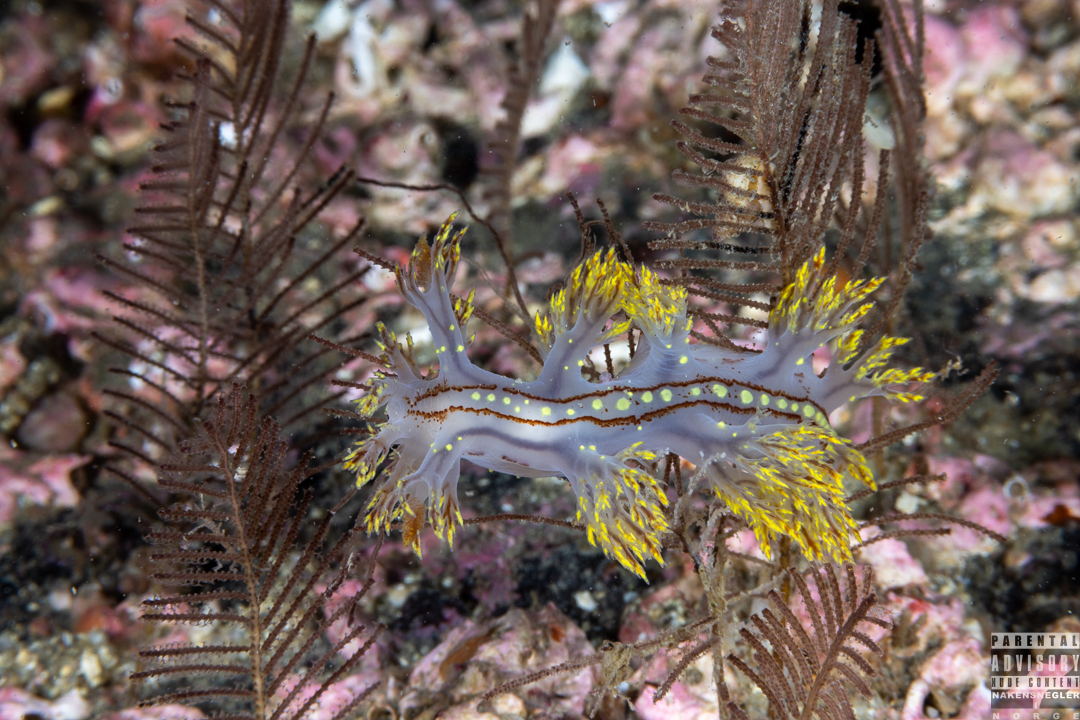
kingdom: Animalia
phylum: Mollusca
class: Gastropoda
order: Nudibranchia
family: Dendronotidae
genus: Dendronotus
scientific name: Dendronotus yrjargul
